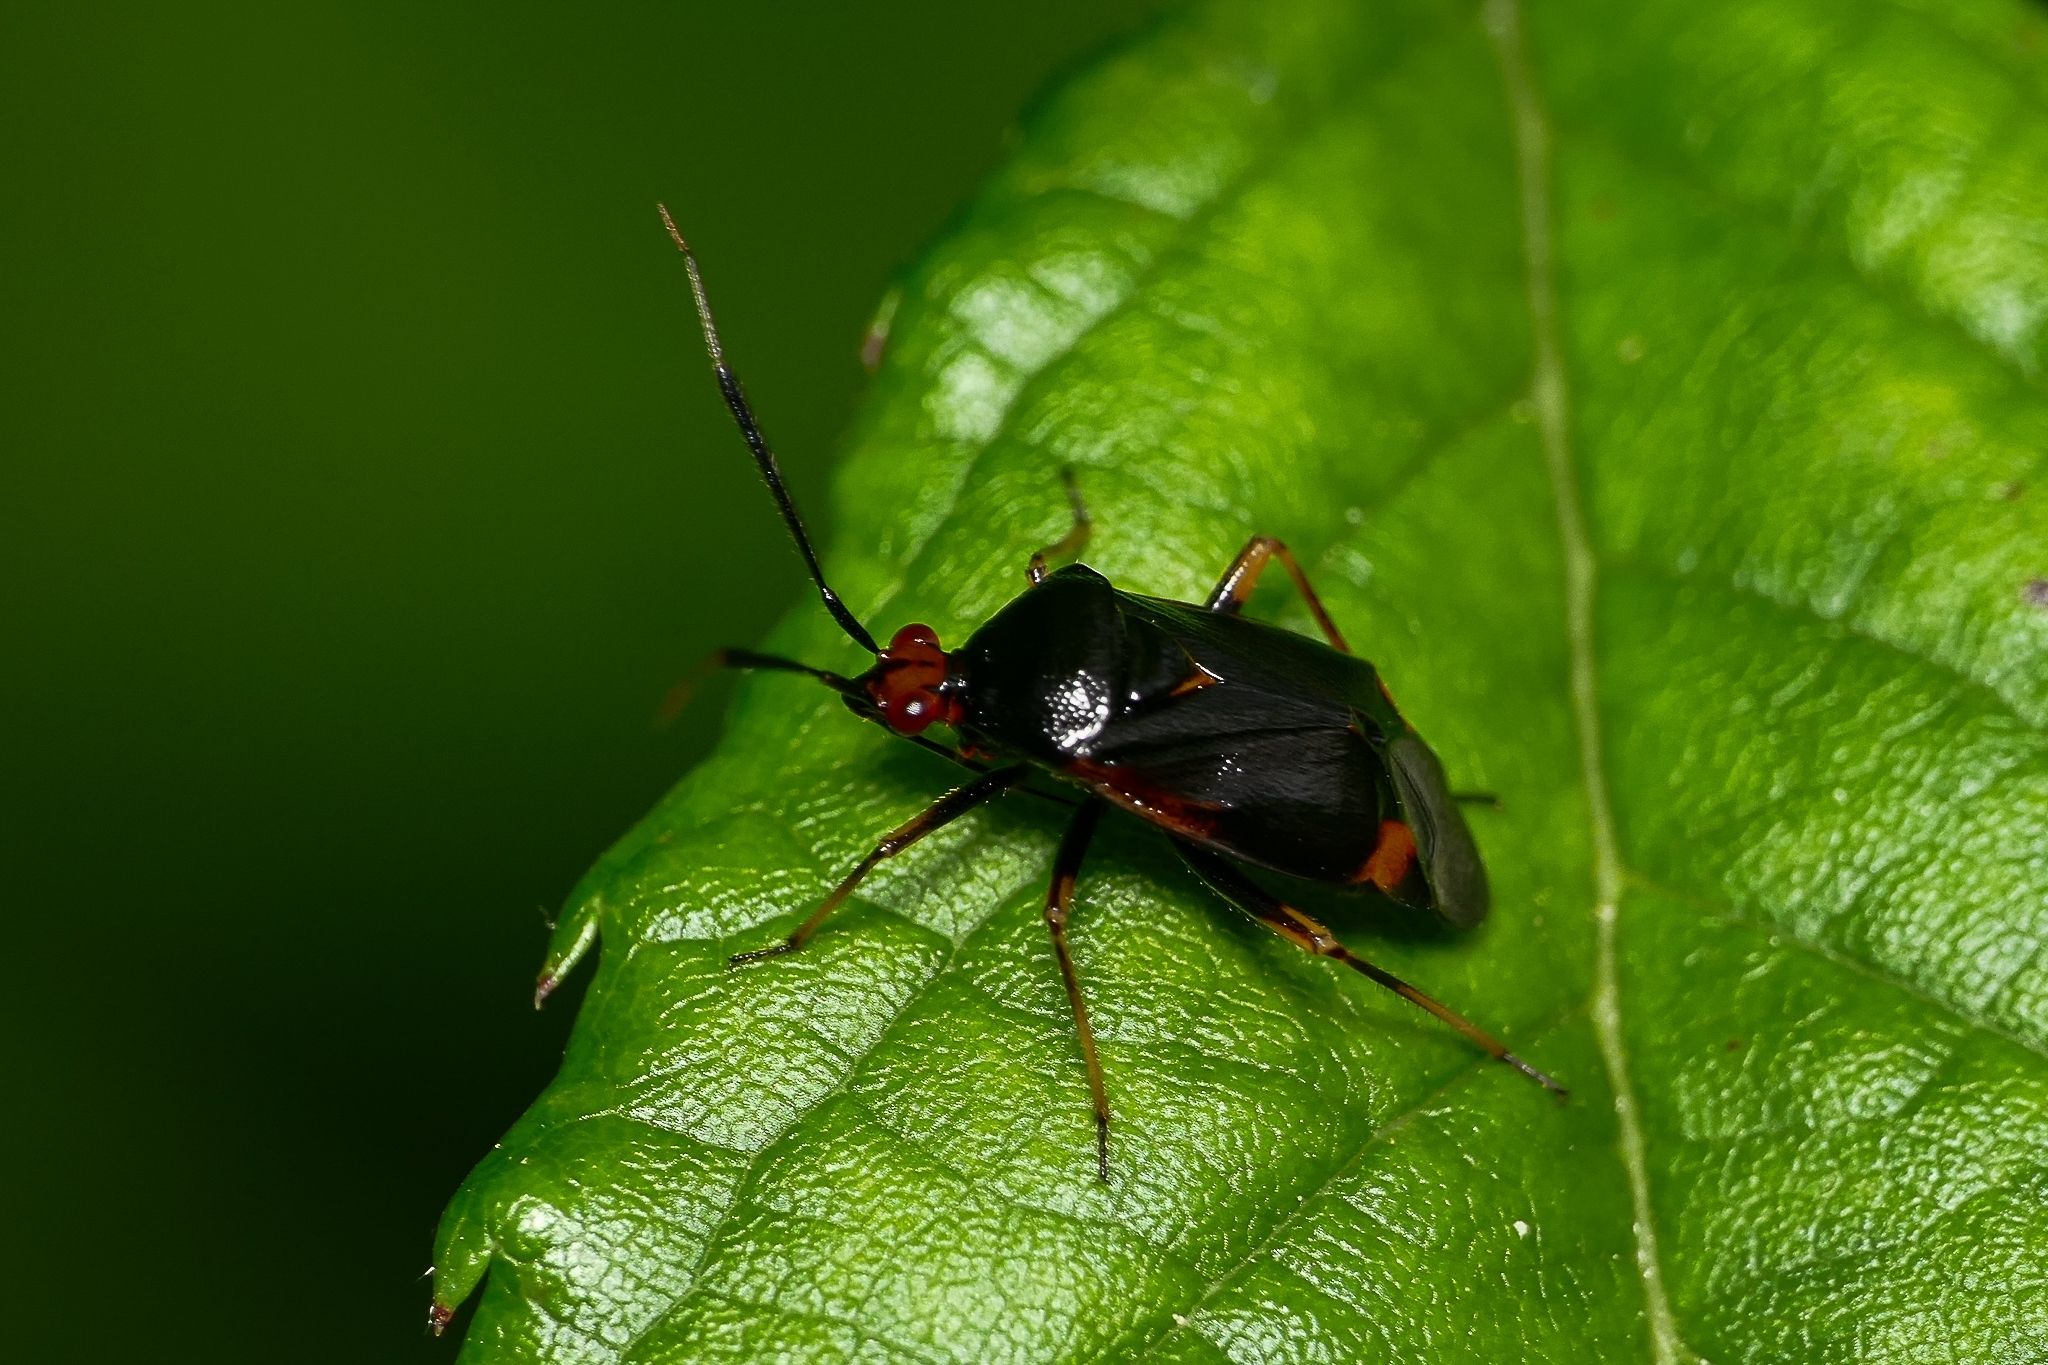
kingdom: Animalia
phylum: Arthropoda
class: Insecta
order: Hemiptera
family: Miridae
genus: Deraeocoris
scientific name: Deraeocoris ruber
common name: Plant bug
